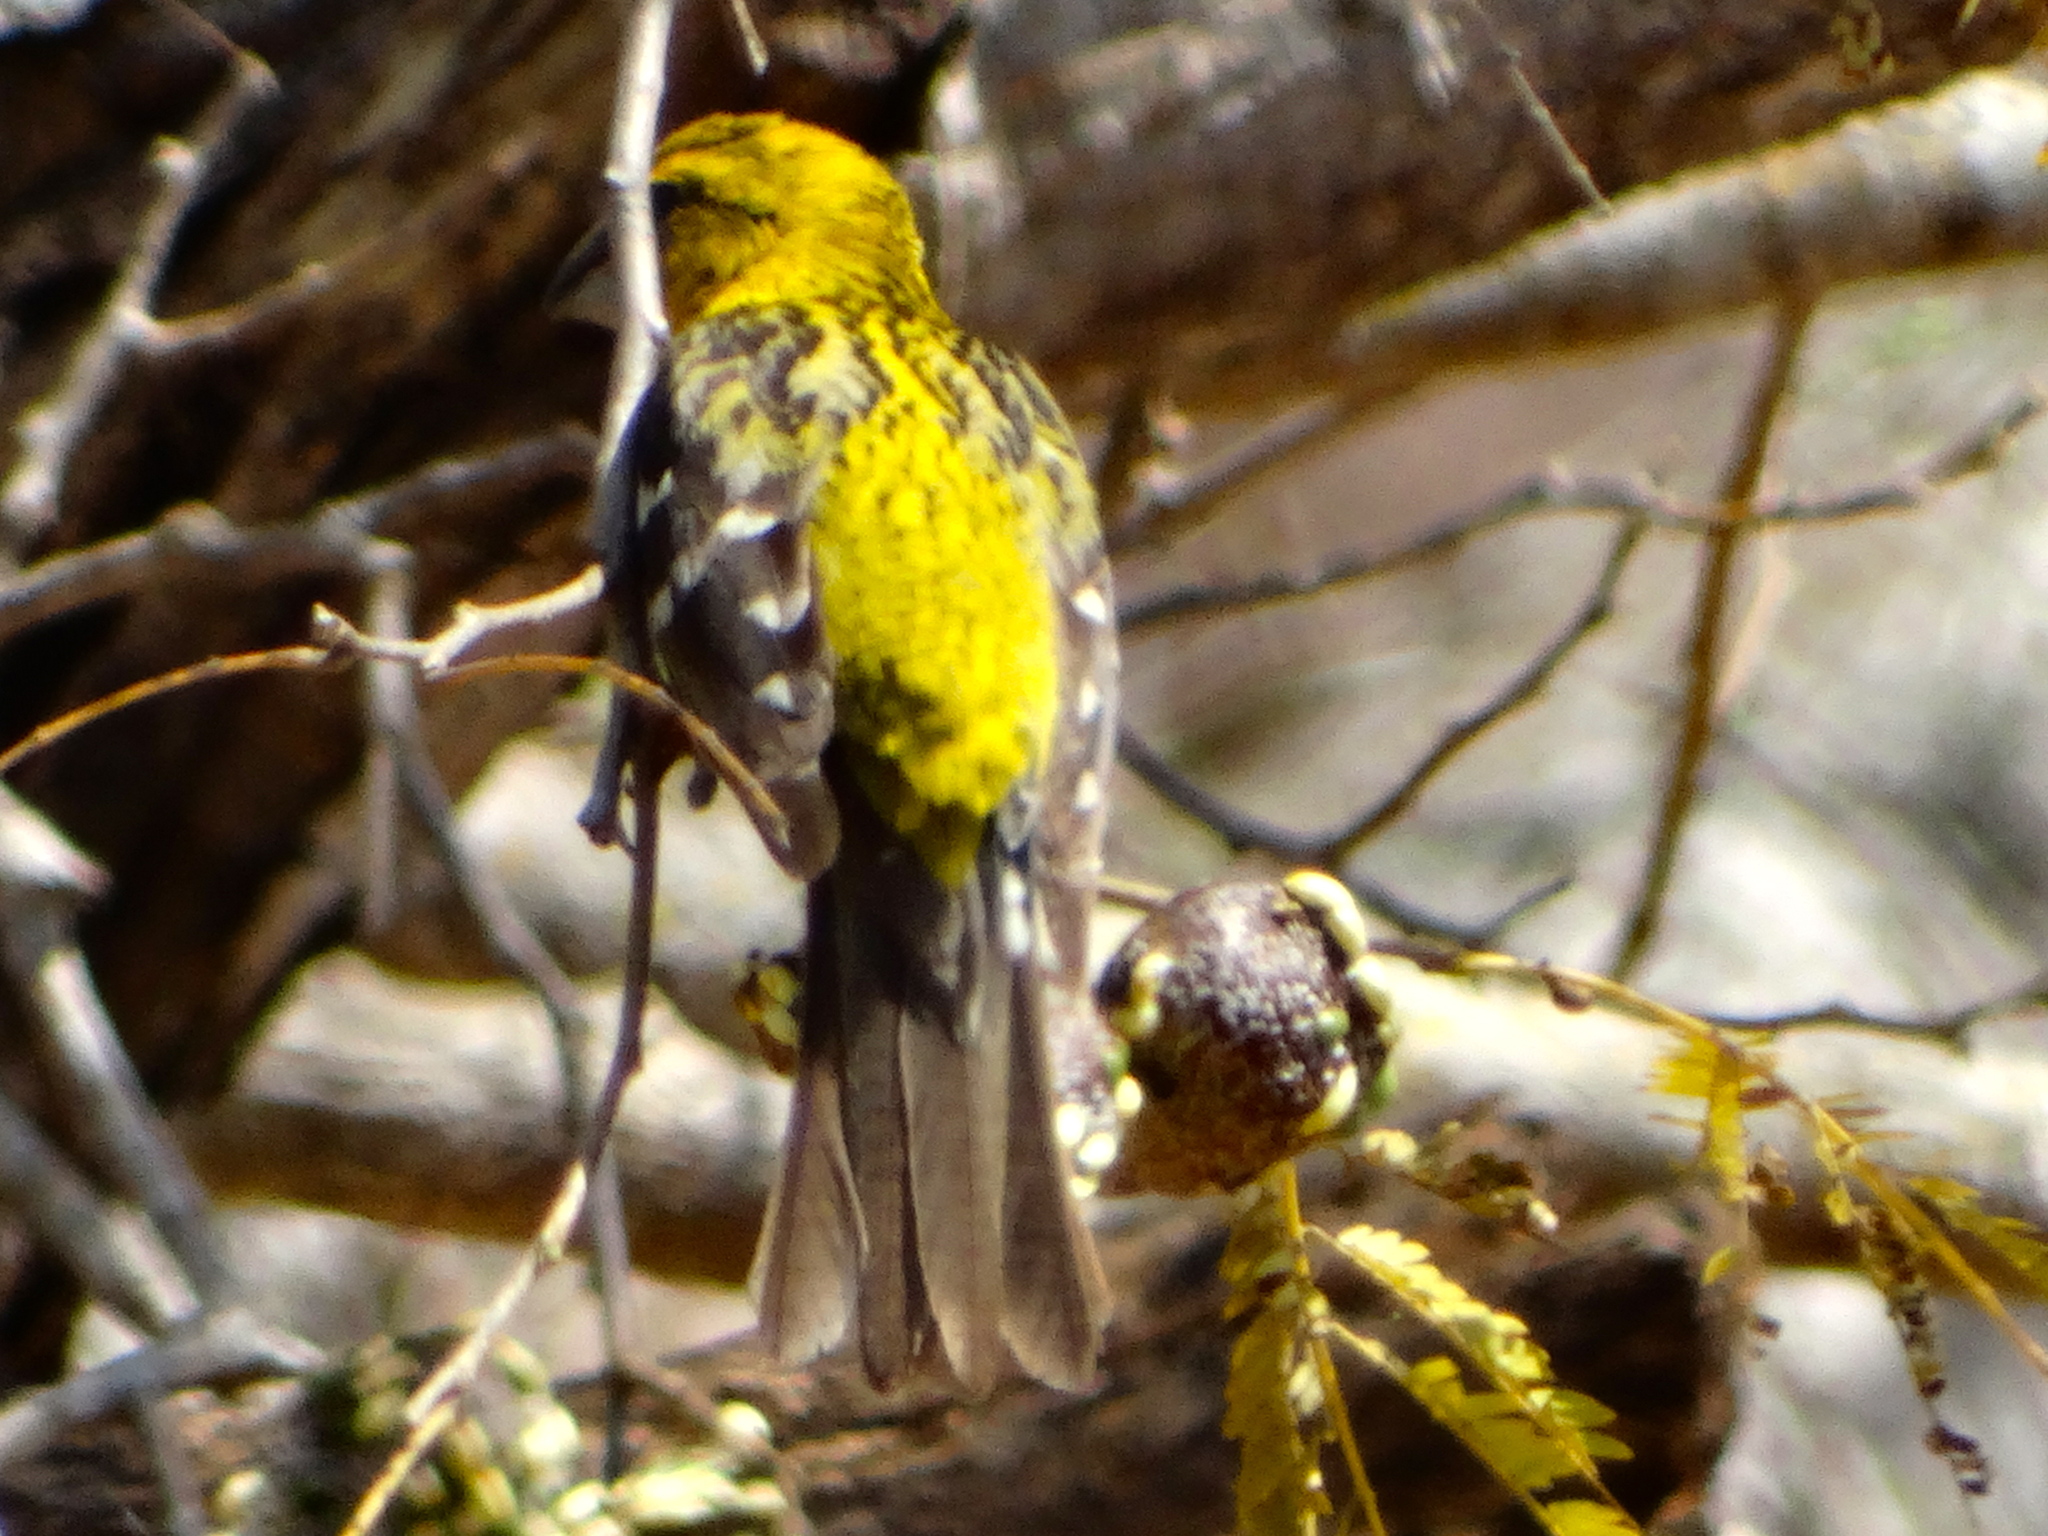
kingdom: Animalia
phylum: Chordata
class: Aves
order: Passeriformes
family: Cardinalidae
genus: Pheucticus
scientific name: Pheucticus chrysopeplus
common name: Yellow grosbeak
